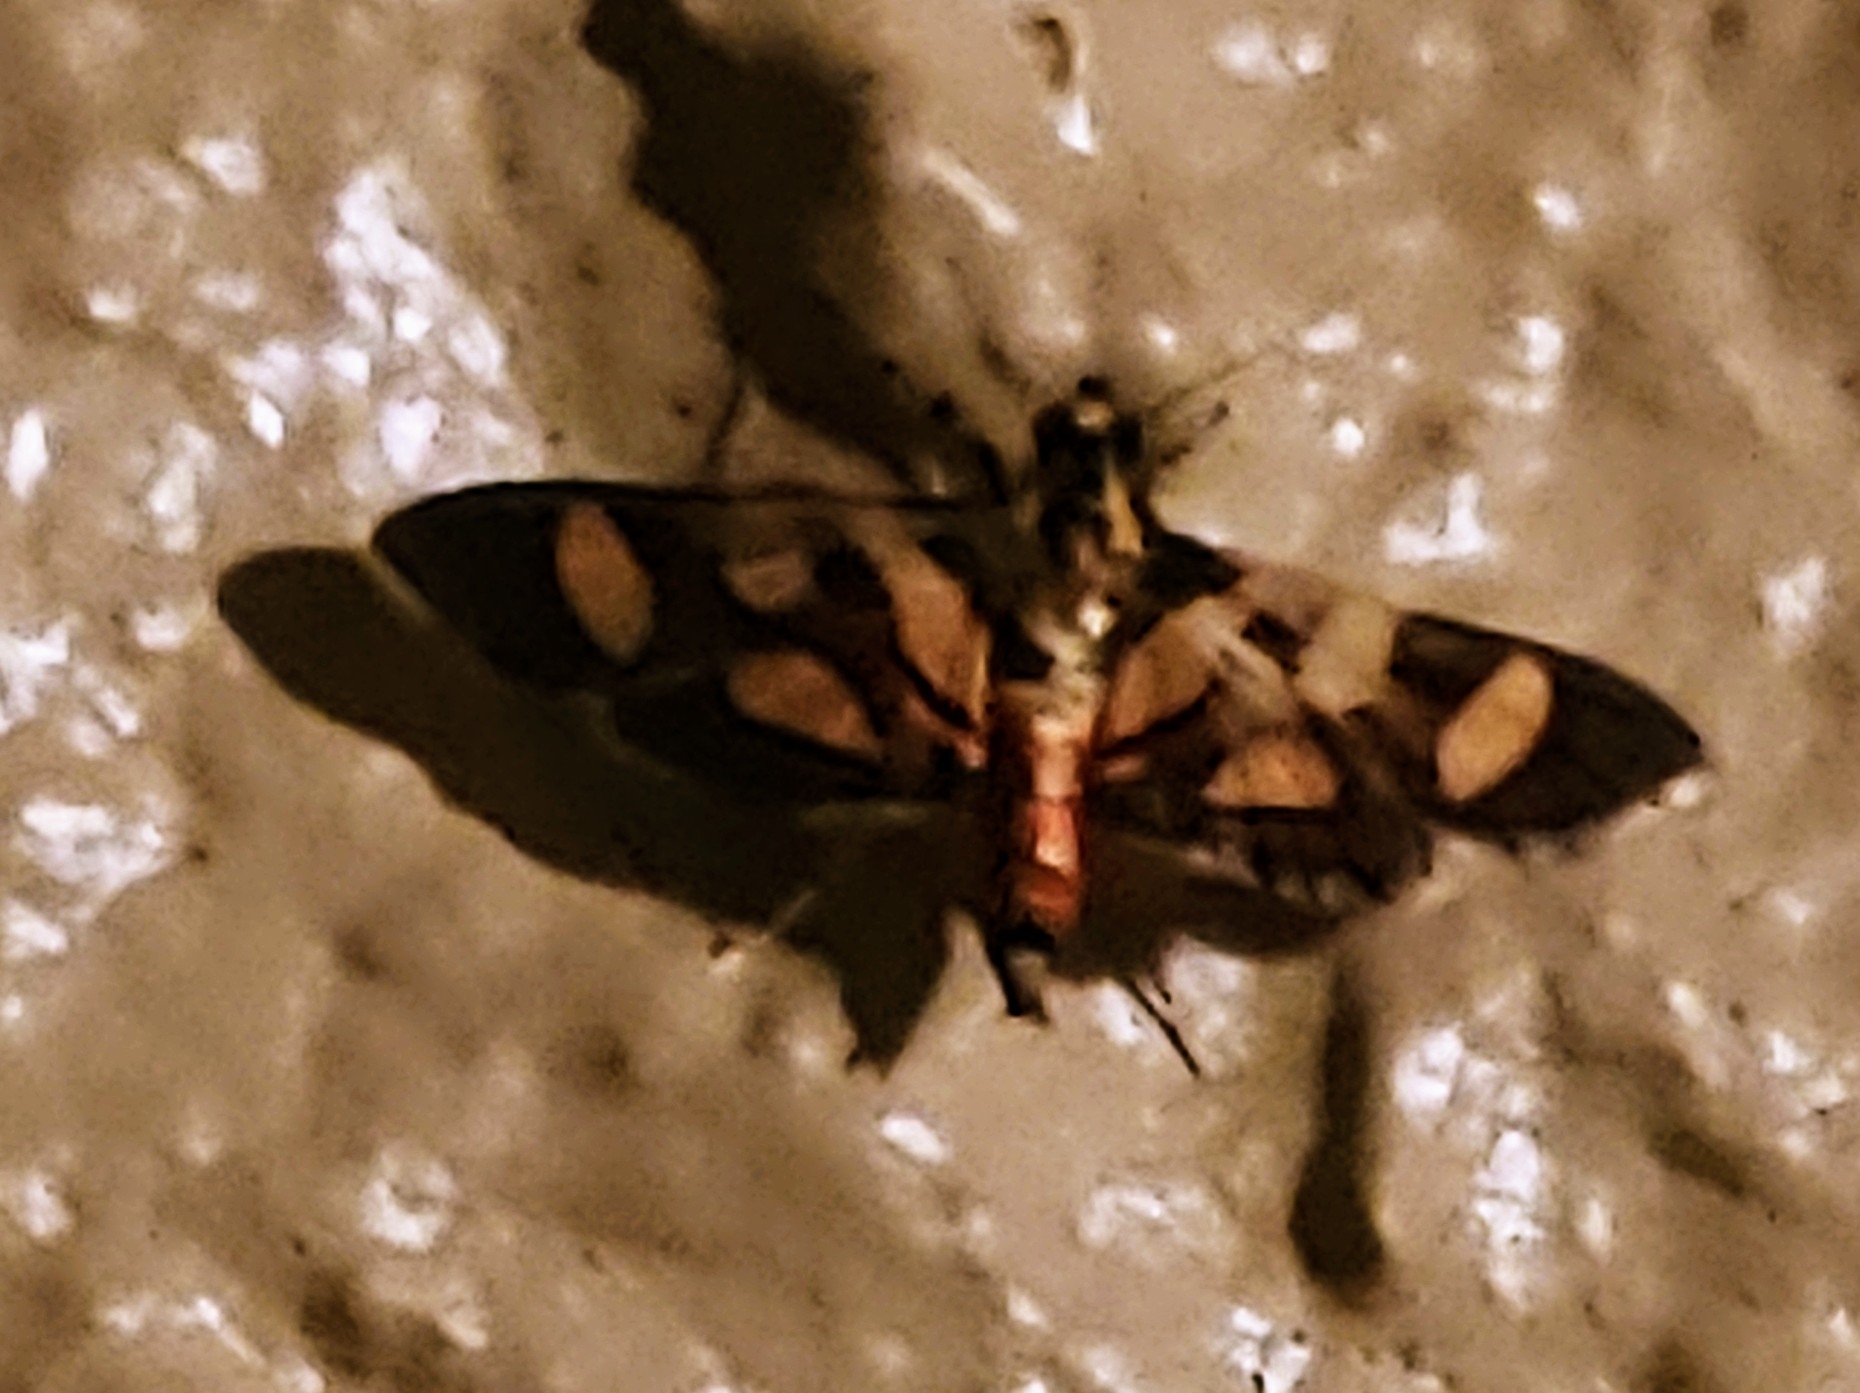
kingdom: Animalia
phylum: Arthropoda
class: Insecta
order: Lepidoptera
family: Crambidae
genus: Syngamia
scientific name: Syngamia florella
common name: Orange-spotted flower moth
